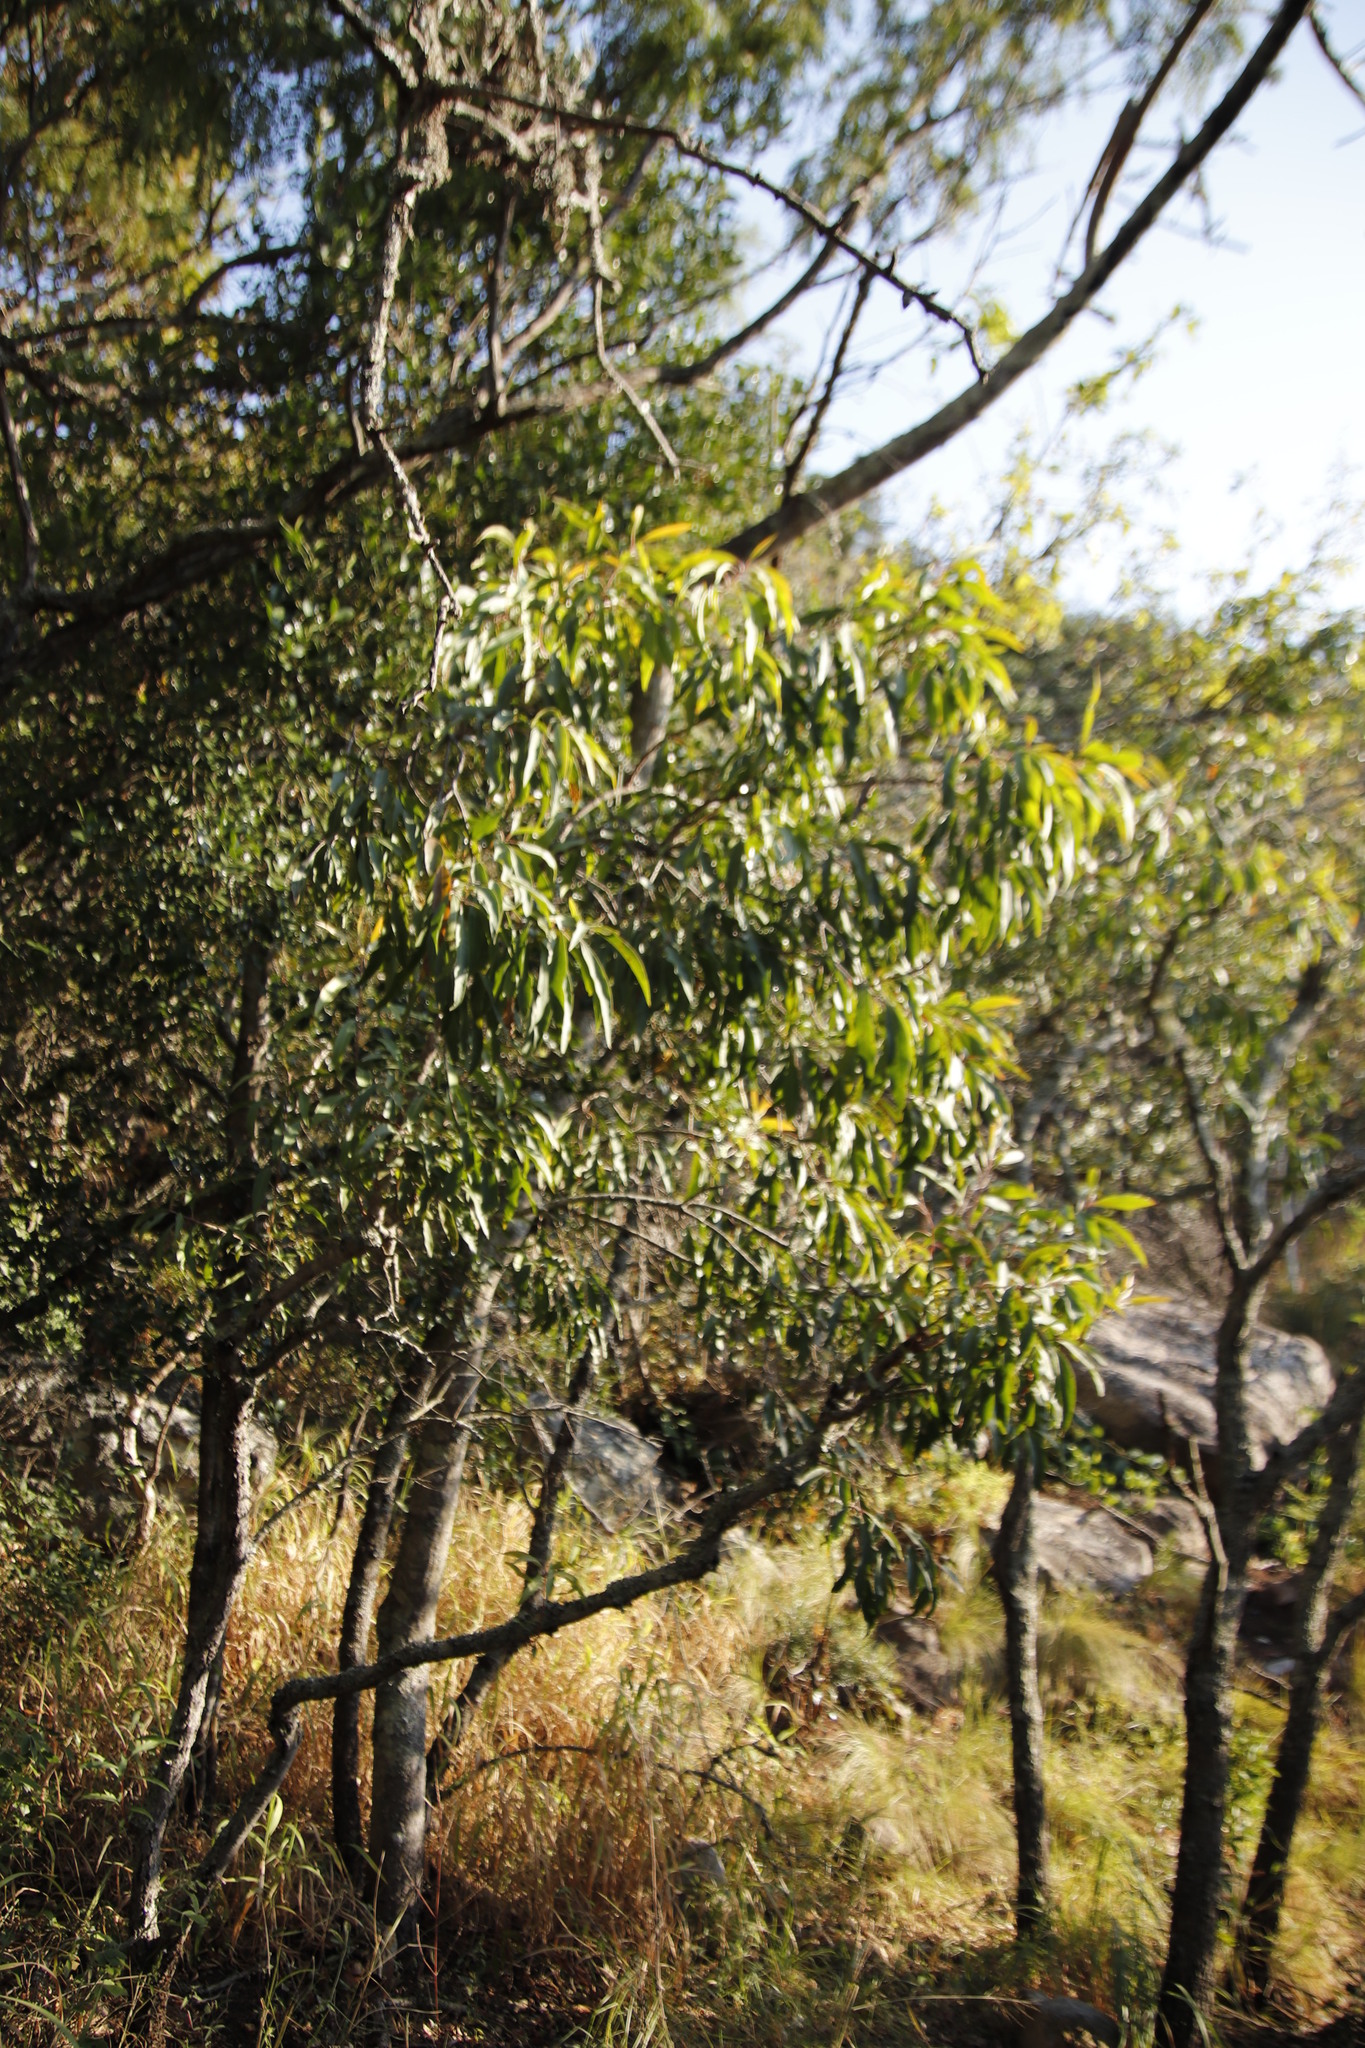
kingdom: Plantae
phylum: Tracheophyta
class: Magnoliopsida
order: Proteales
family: Proteaceae
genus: Faurea
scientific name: Faurea saligna
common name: African bean
